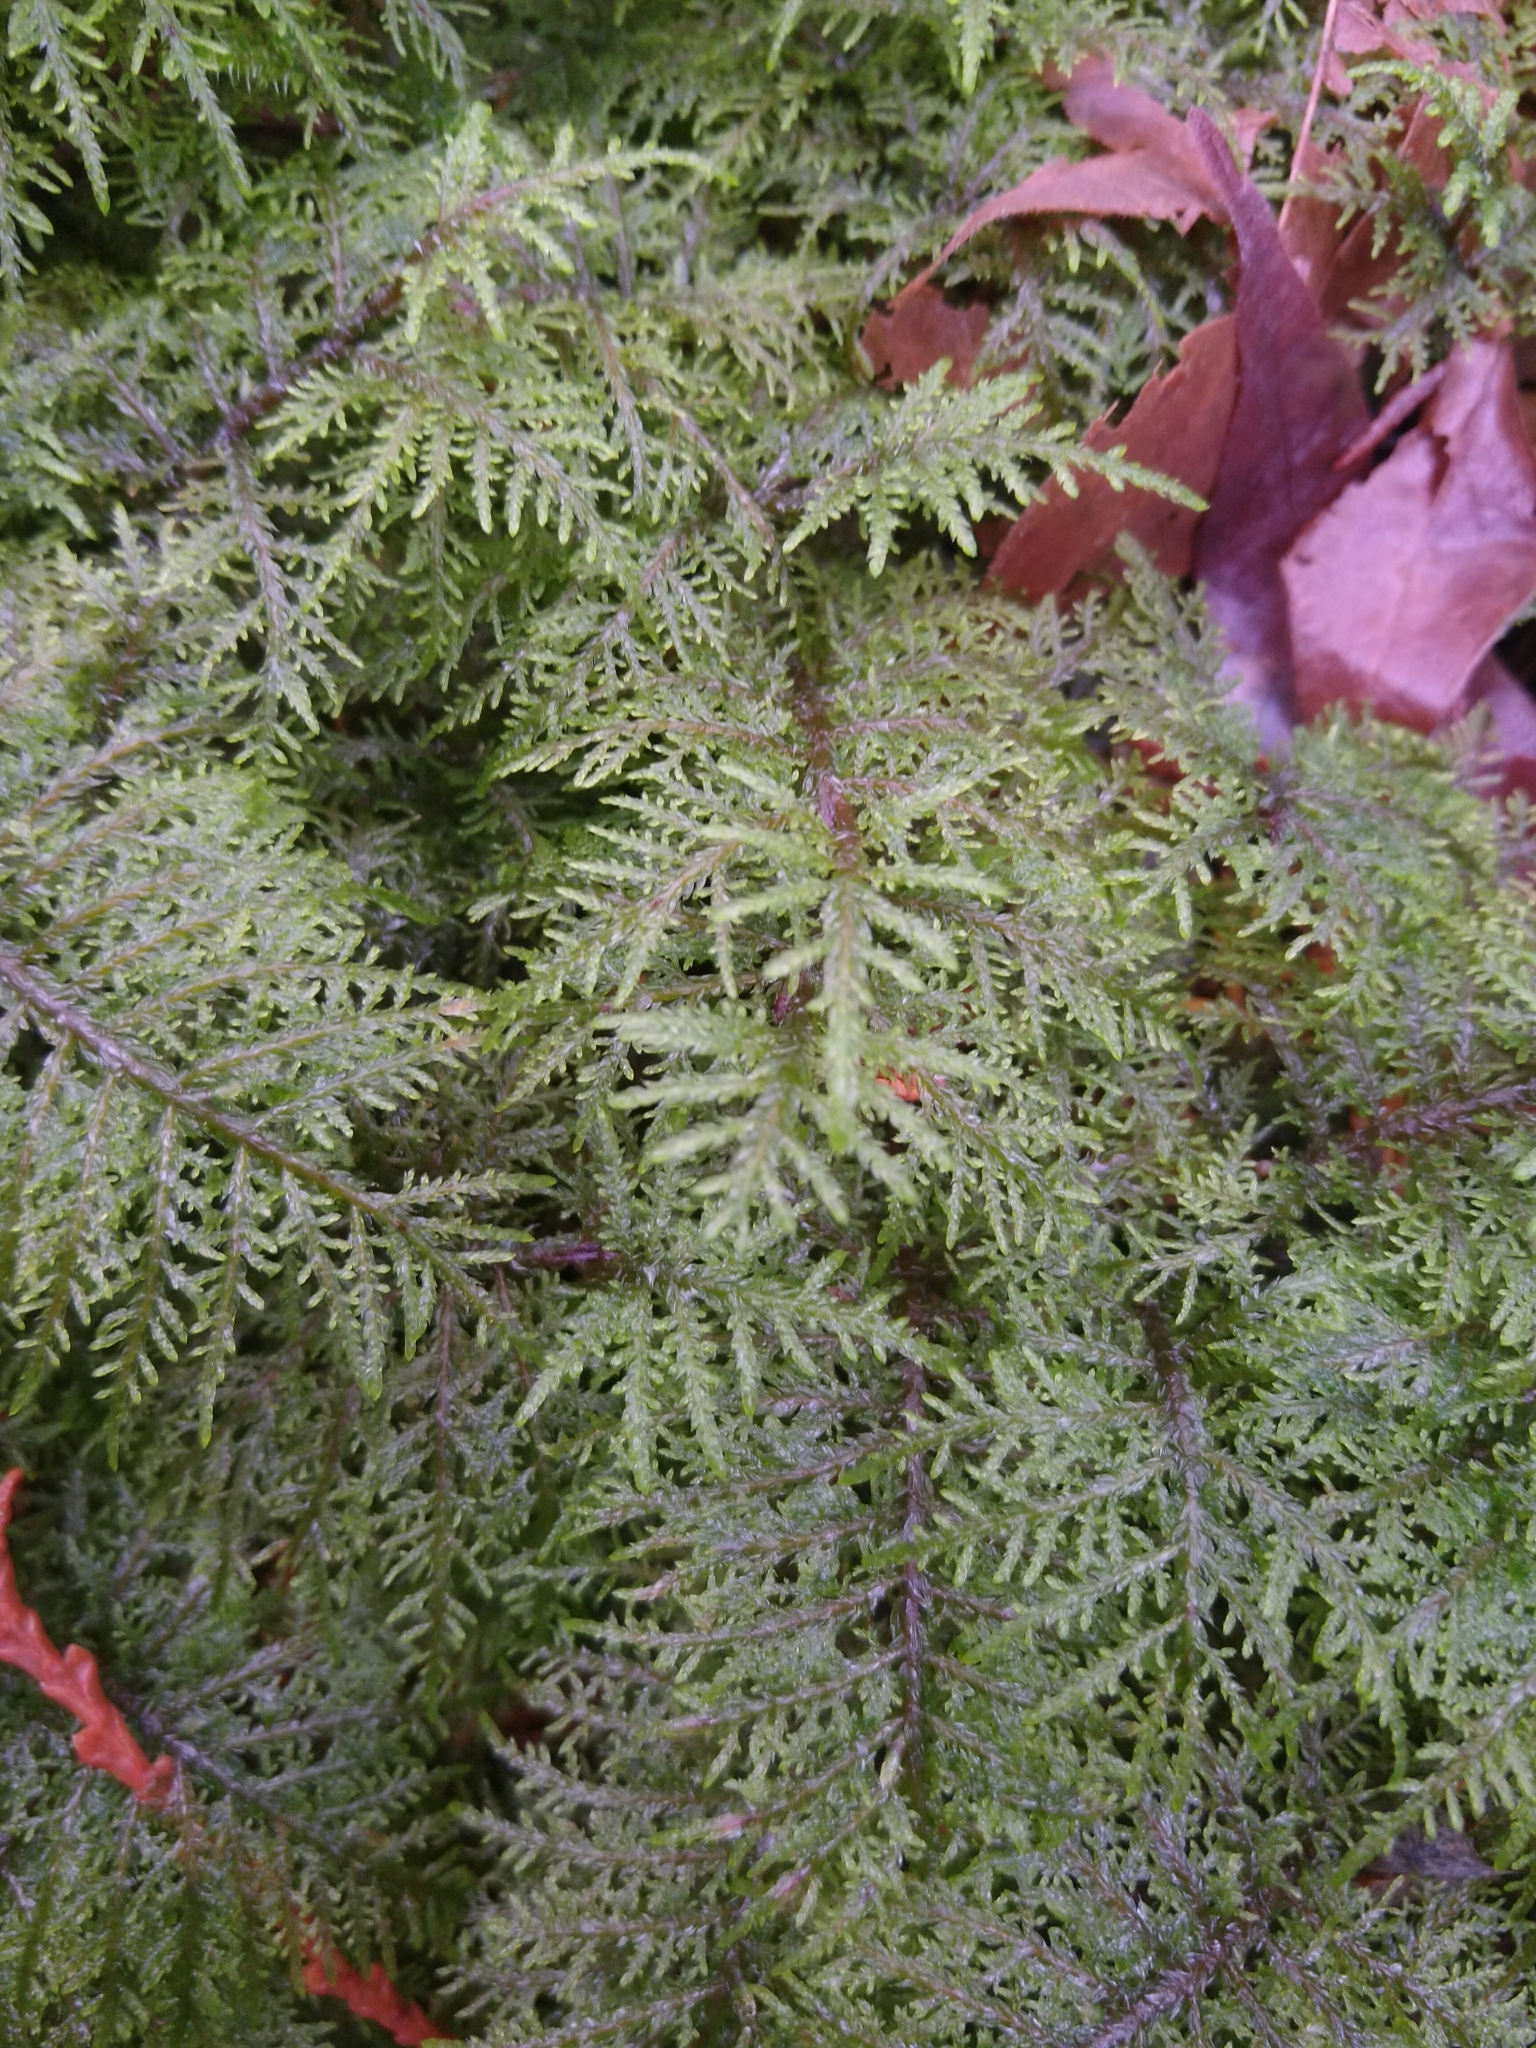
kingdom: Plantae
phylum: Bryophyta
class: Bryopsida
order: Hypnales
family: Hylocomiaceae
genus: Hylocomium
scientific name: Hylocomium splendens
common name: Stairstep moss
